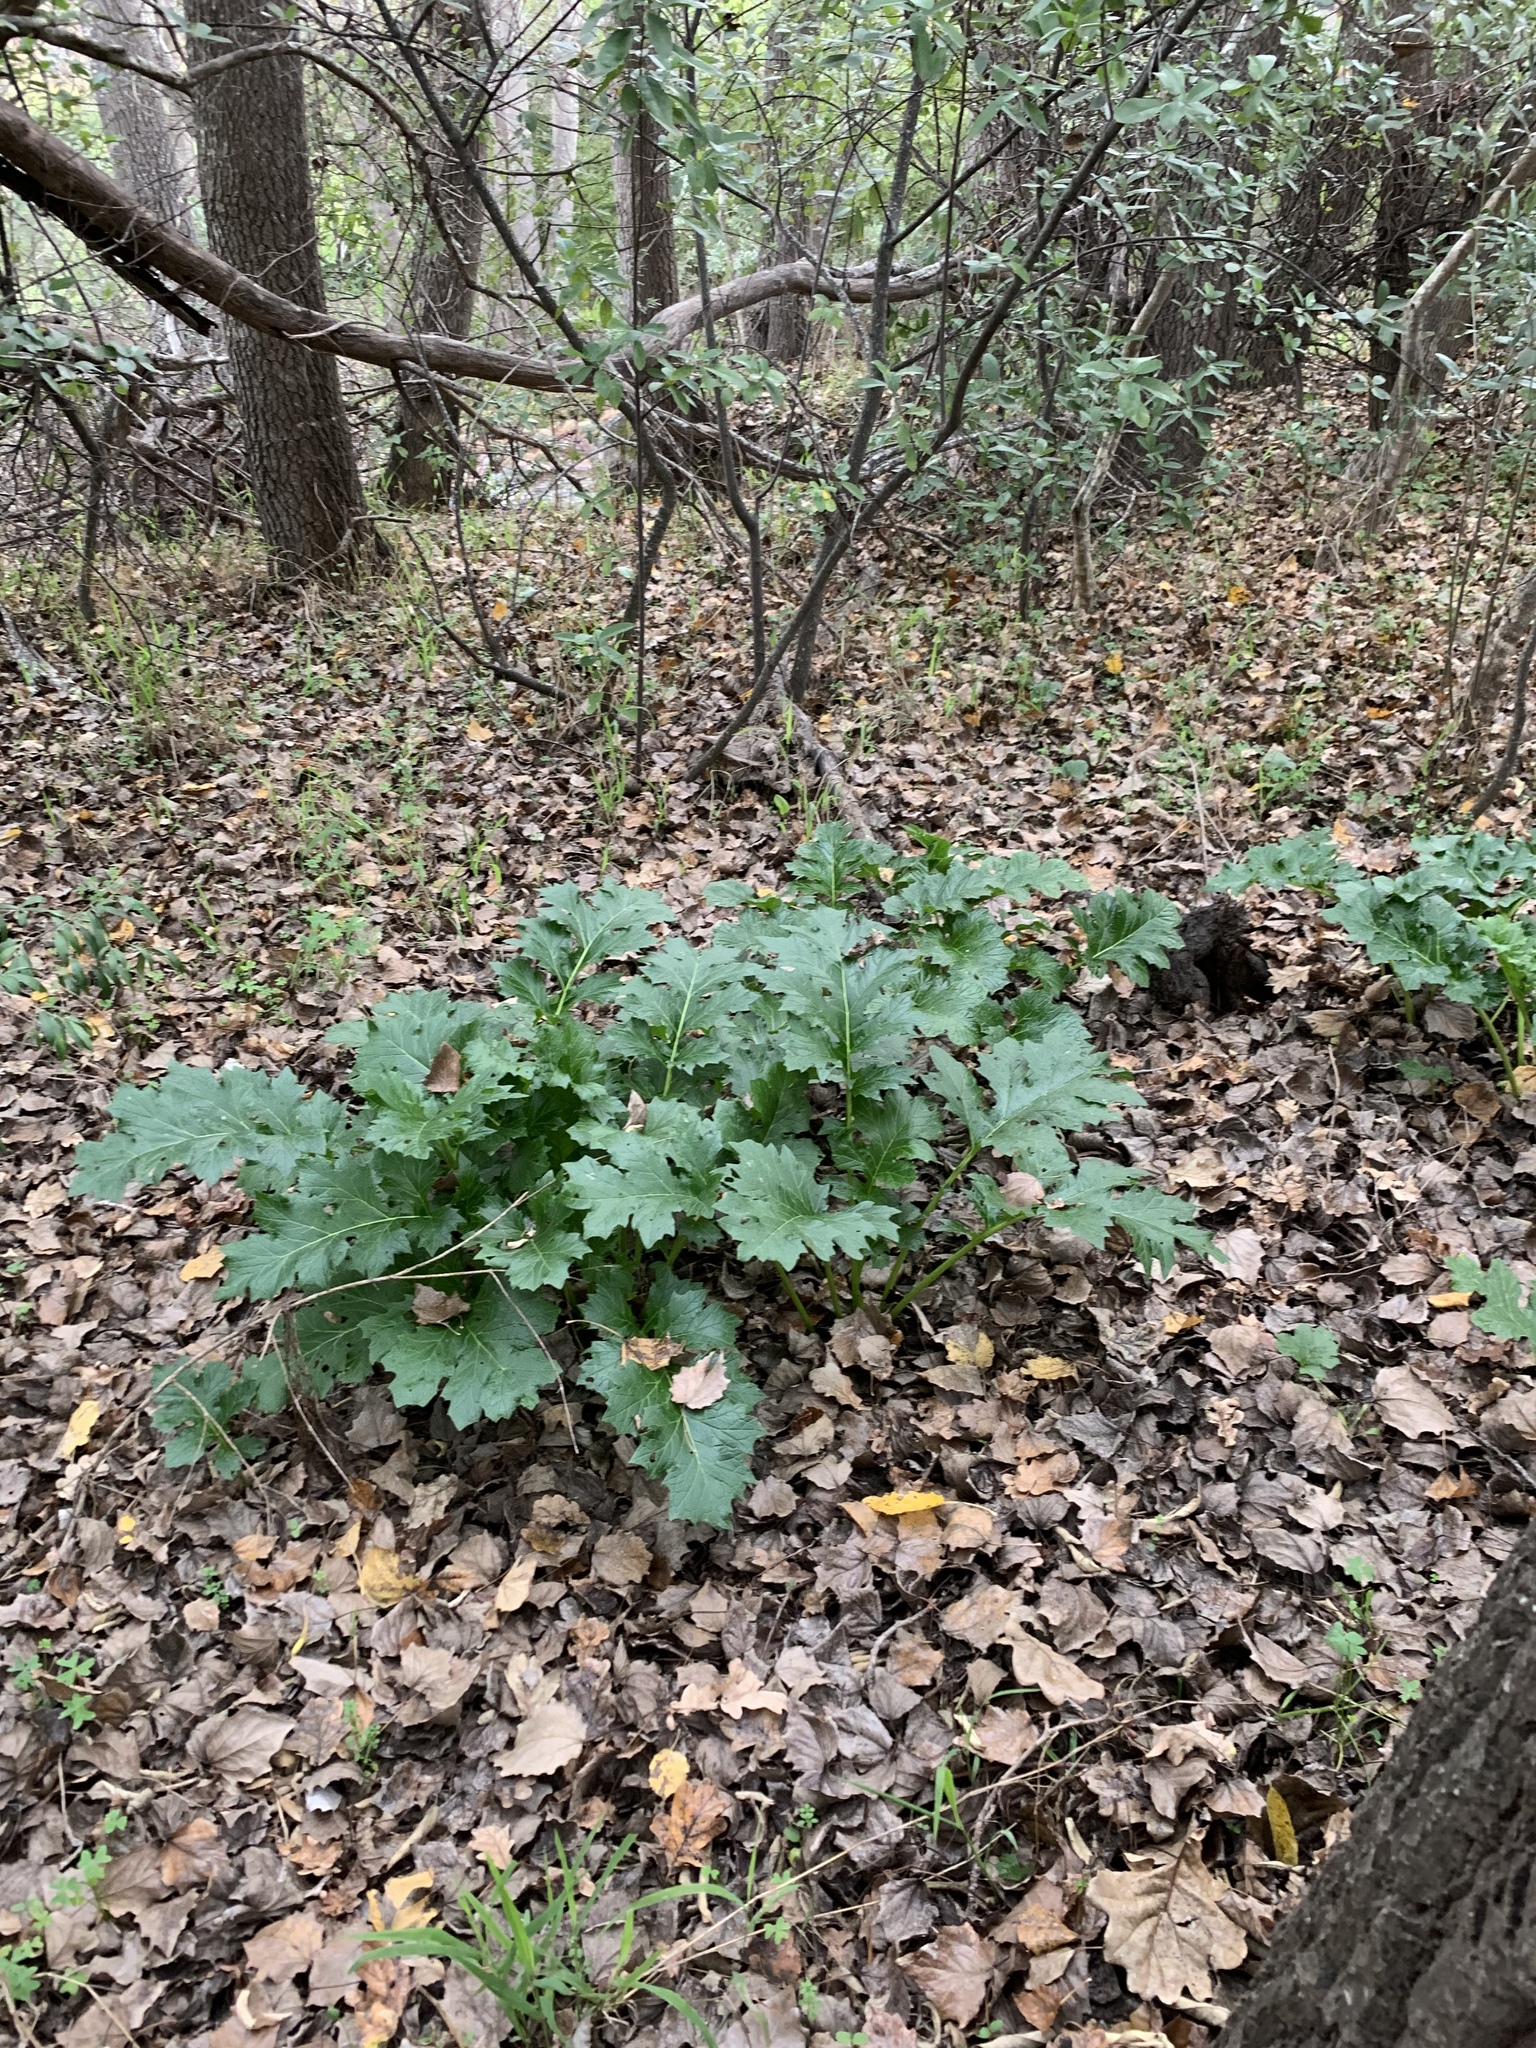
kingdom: Plantae
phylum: Tracheophyta
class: Magnoliopsida
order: Lamiales
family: Acanthaceae
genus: Acanthus
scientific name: Acanthus mollis
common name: Bear's-breech
